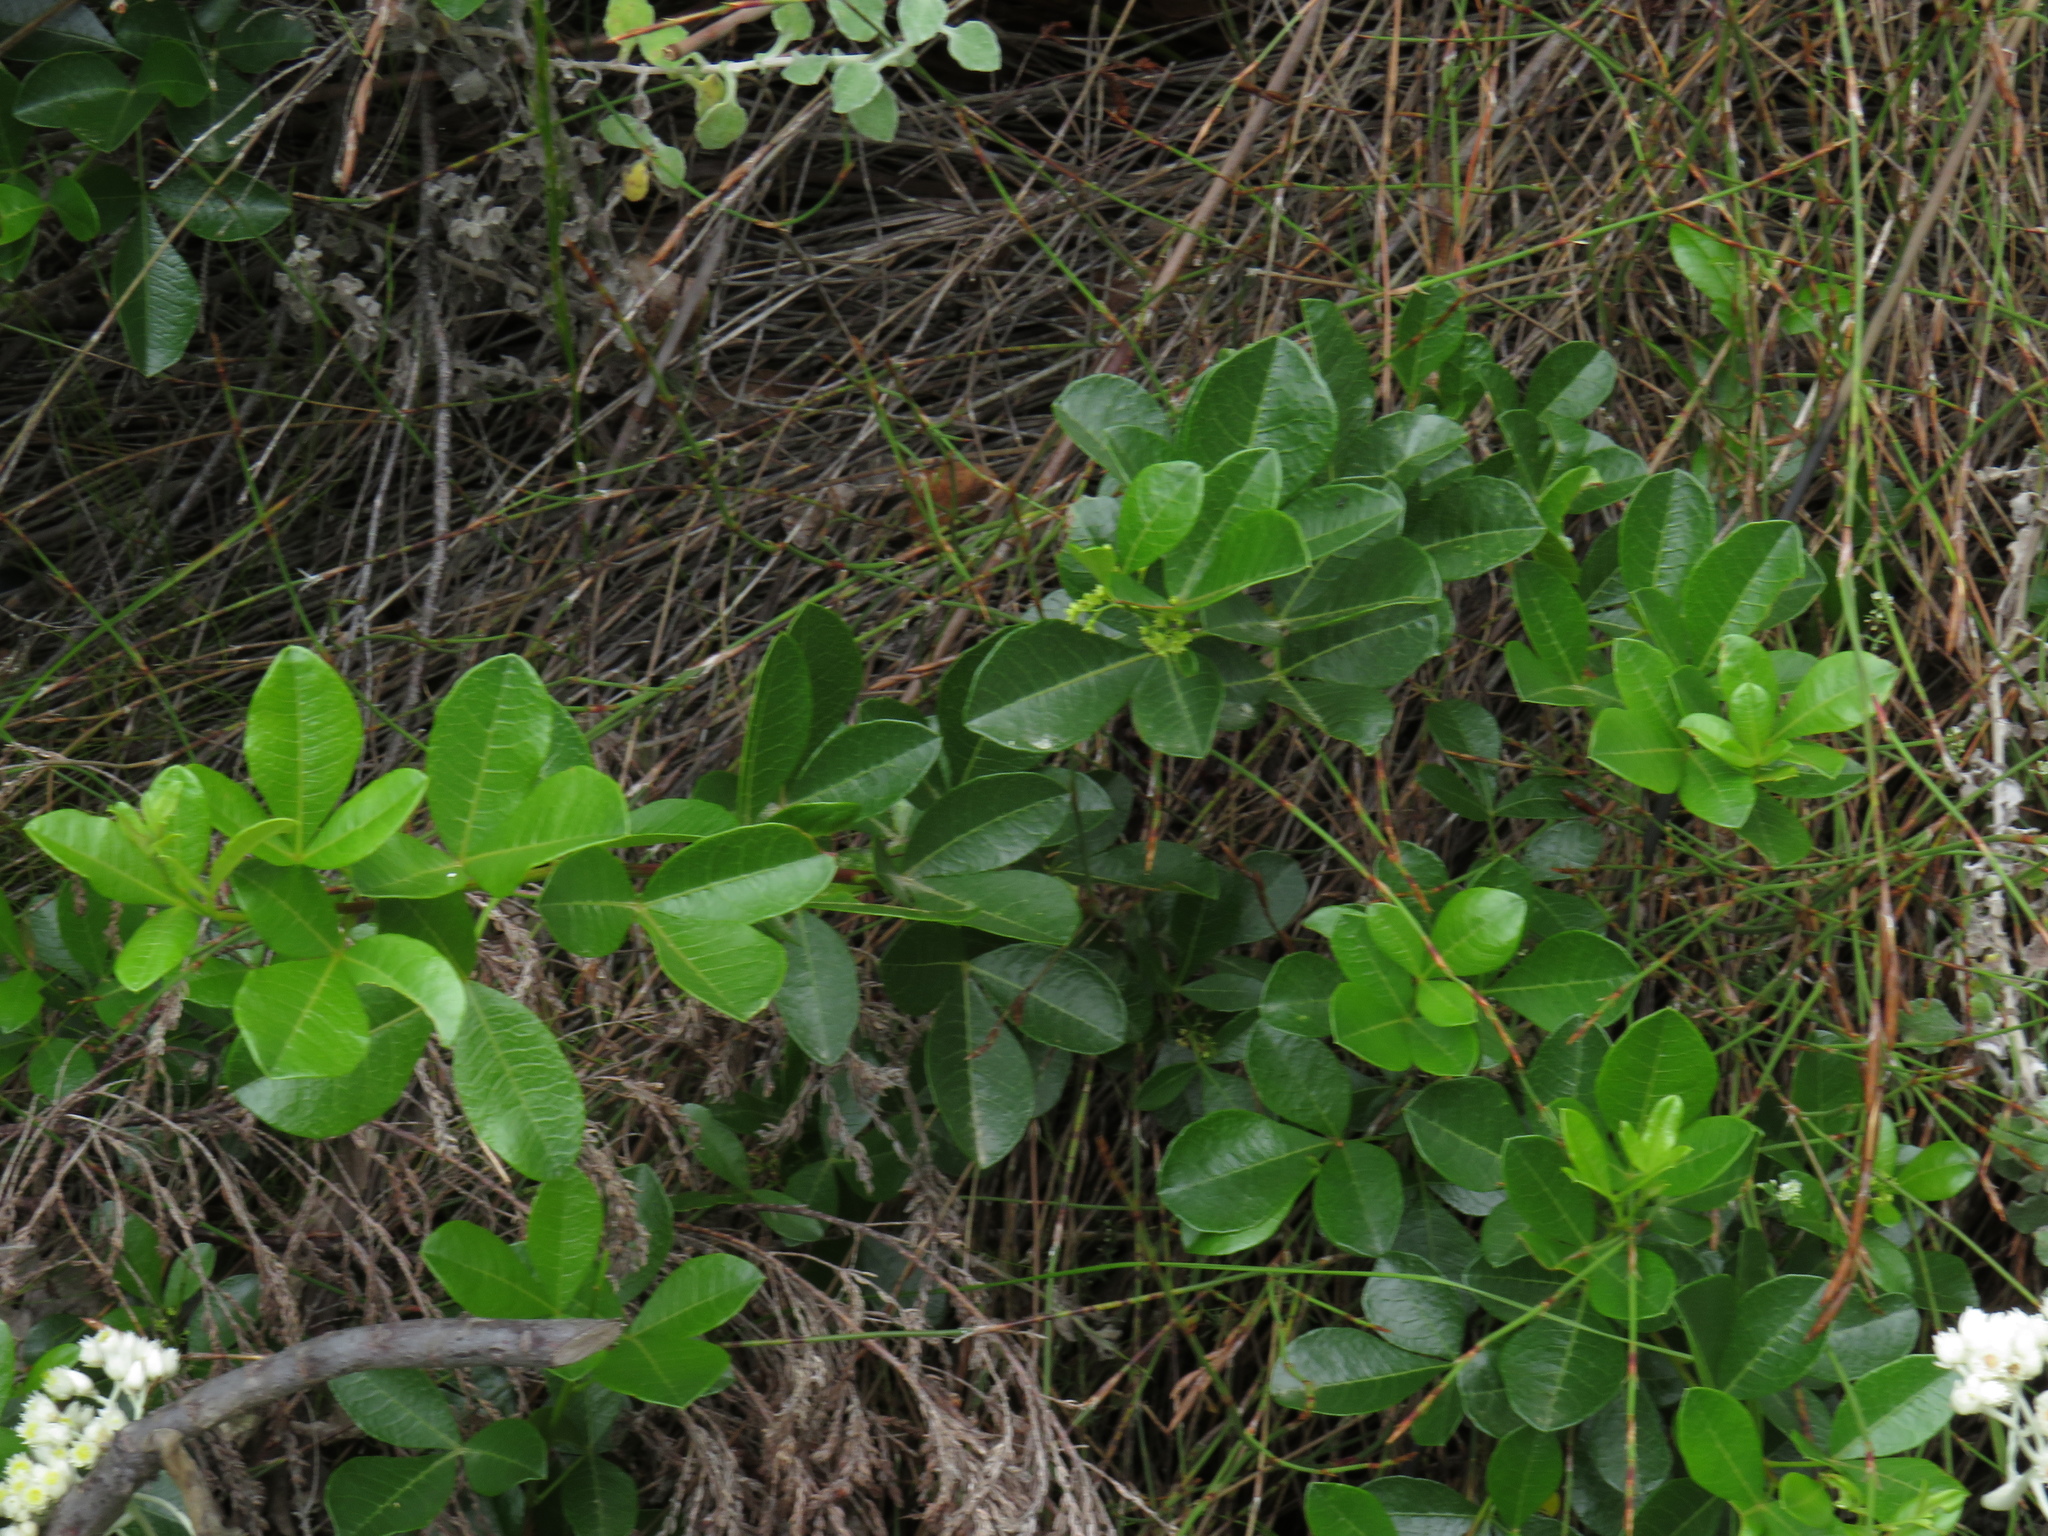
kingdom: Plantae
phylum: Tracheophyta
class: Magnoliopsida
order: Sapindales
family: Anacardiaceae
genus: Searsia
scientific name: Searsia laevigata
